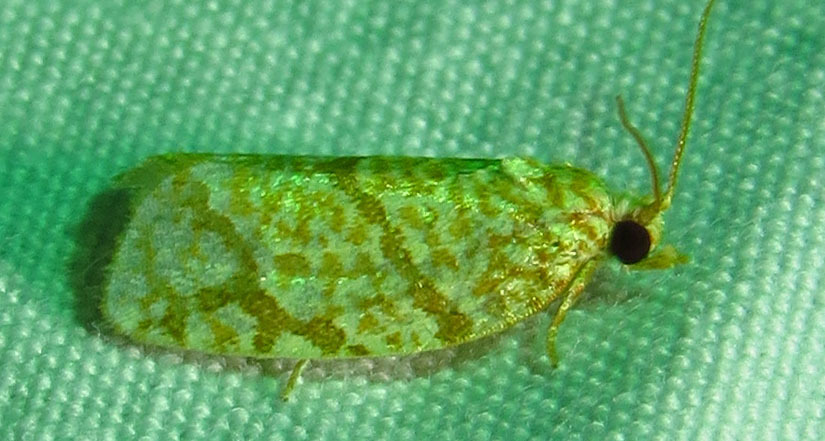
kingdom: Animalia
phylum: Arthropoda
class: Insecta
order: Lepidoptera
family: Tortricidae
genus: Argyrotaenia
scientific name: Argyrotaenia quercifoliana
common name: Yellow-winged oak leafroller moth
